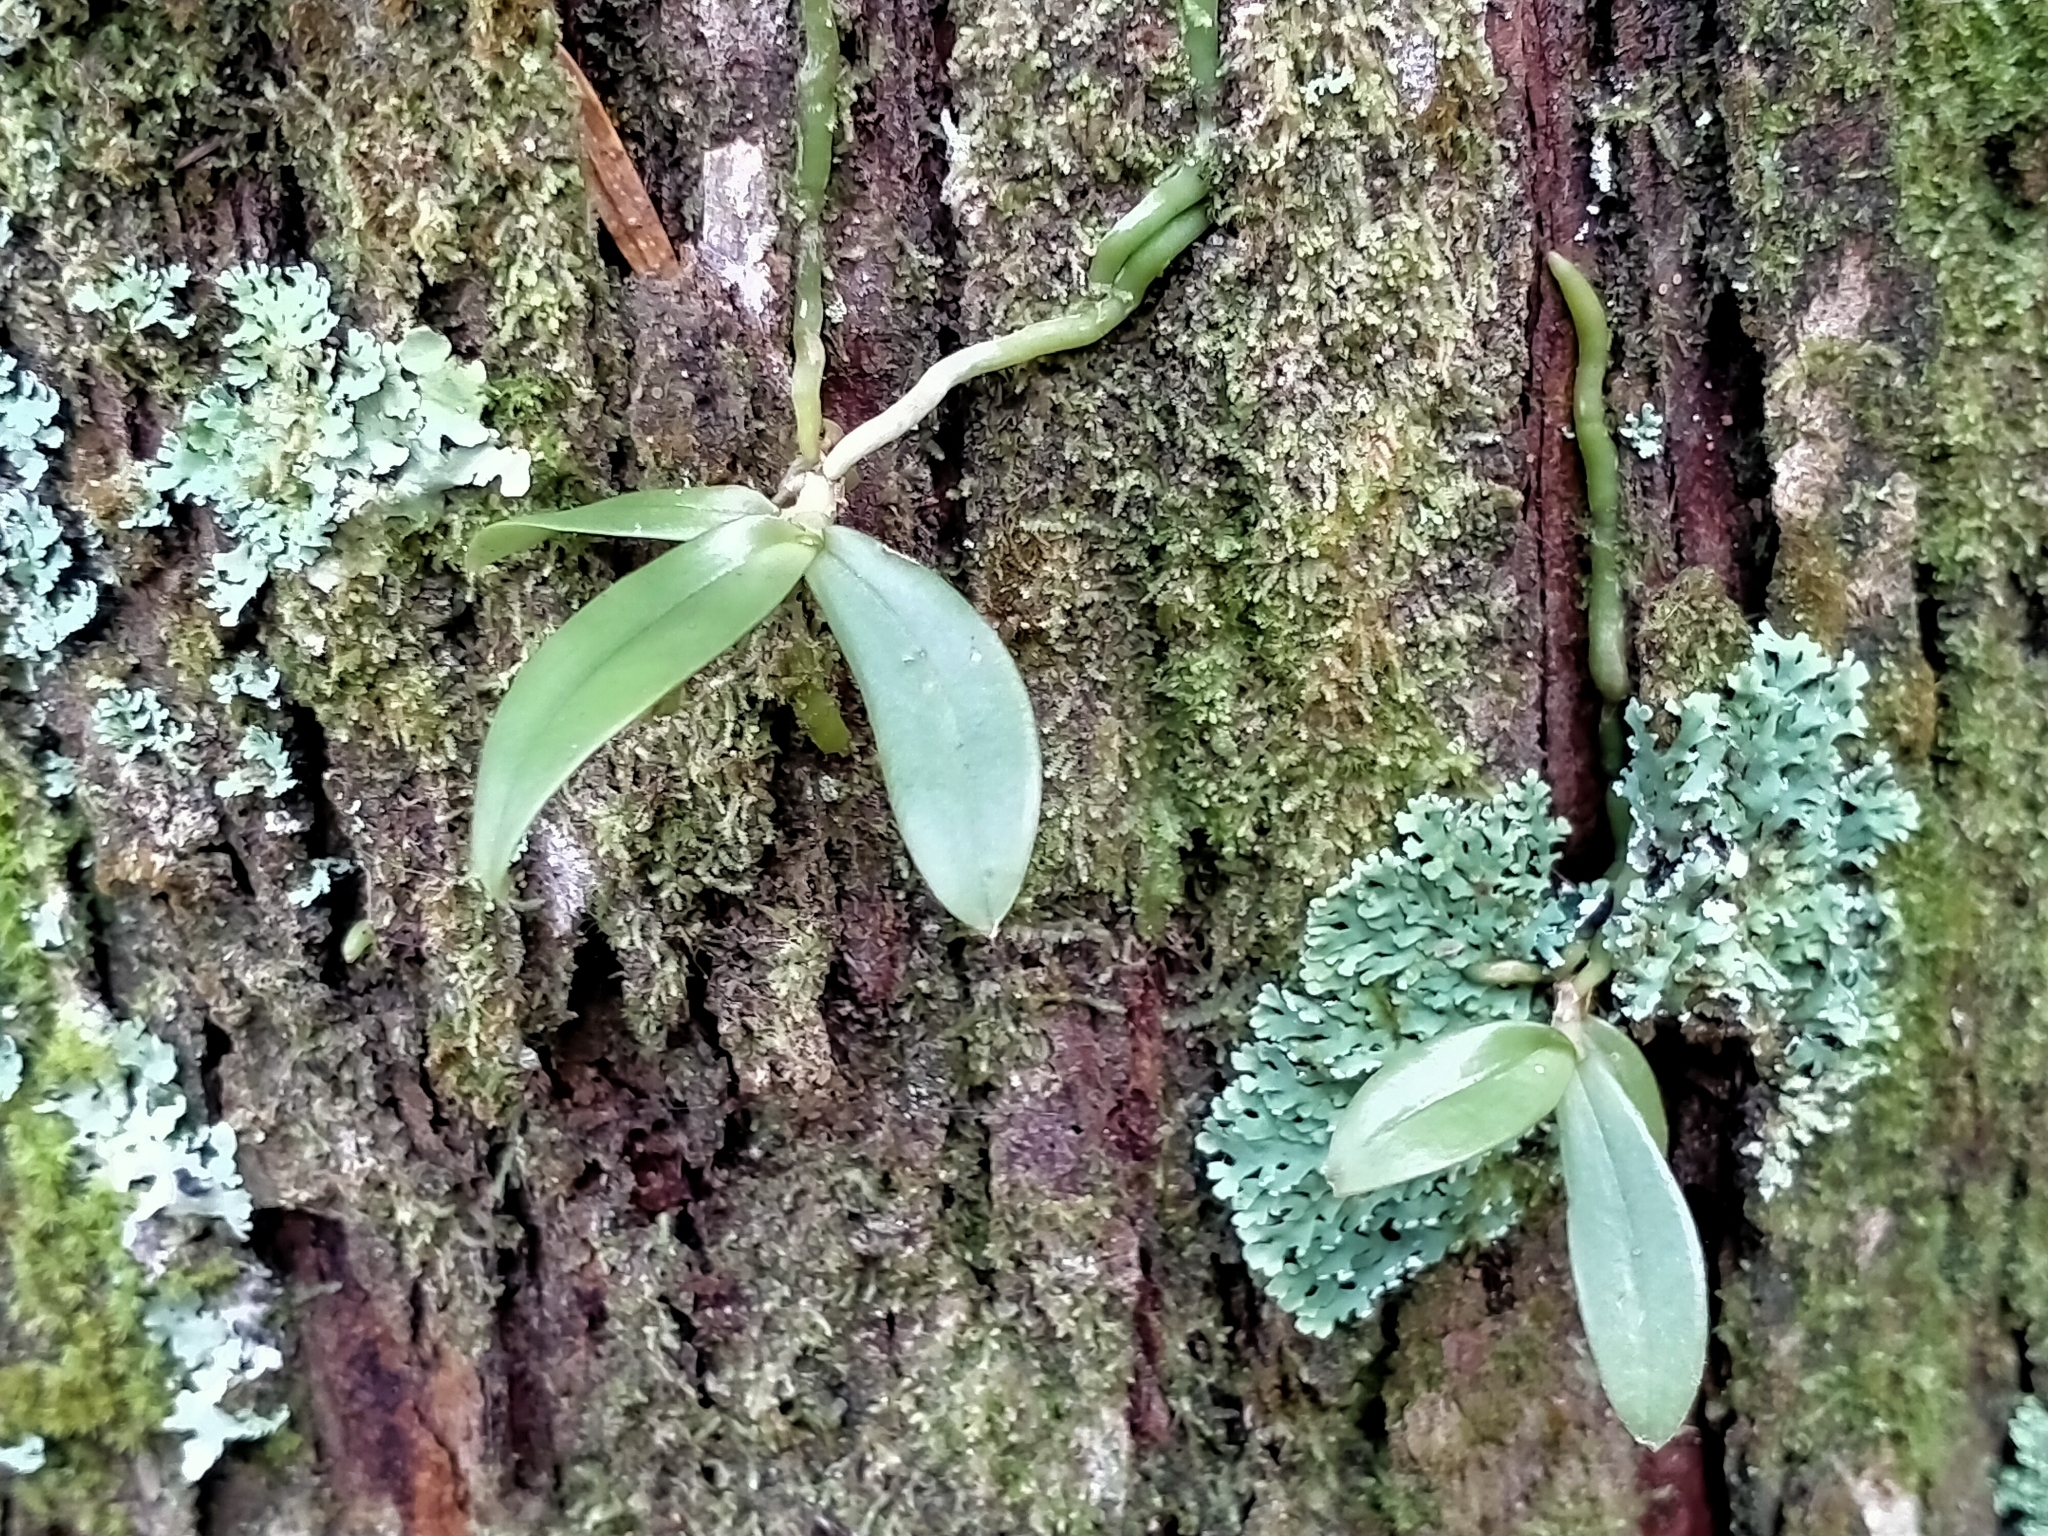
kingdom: Plantae
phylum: Tracheophyta
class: Liliopsida
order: Asparagales
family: Orchidaceae
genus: Drymoanthus
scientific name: Drymoanthus adversus
